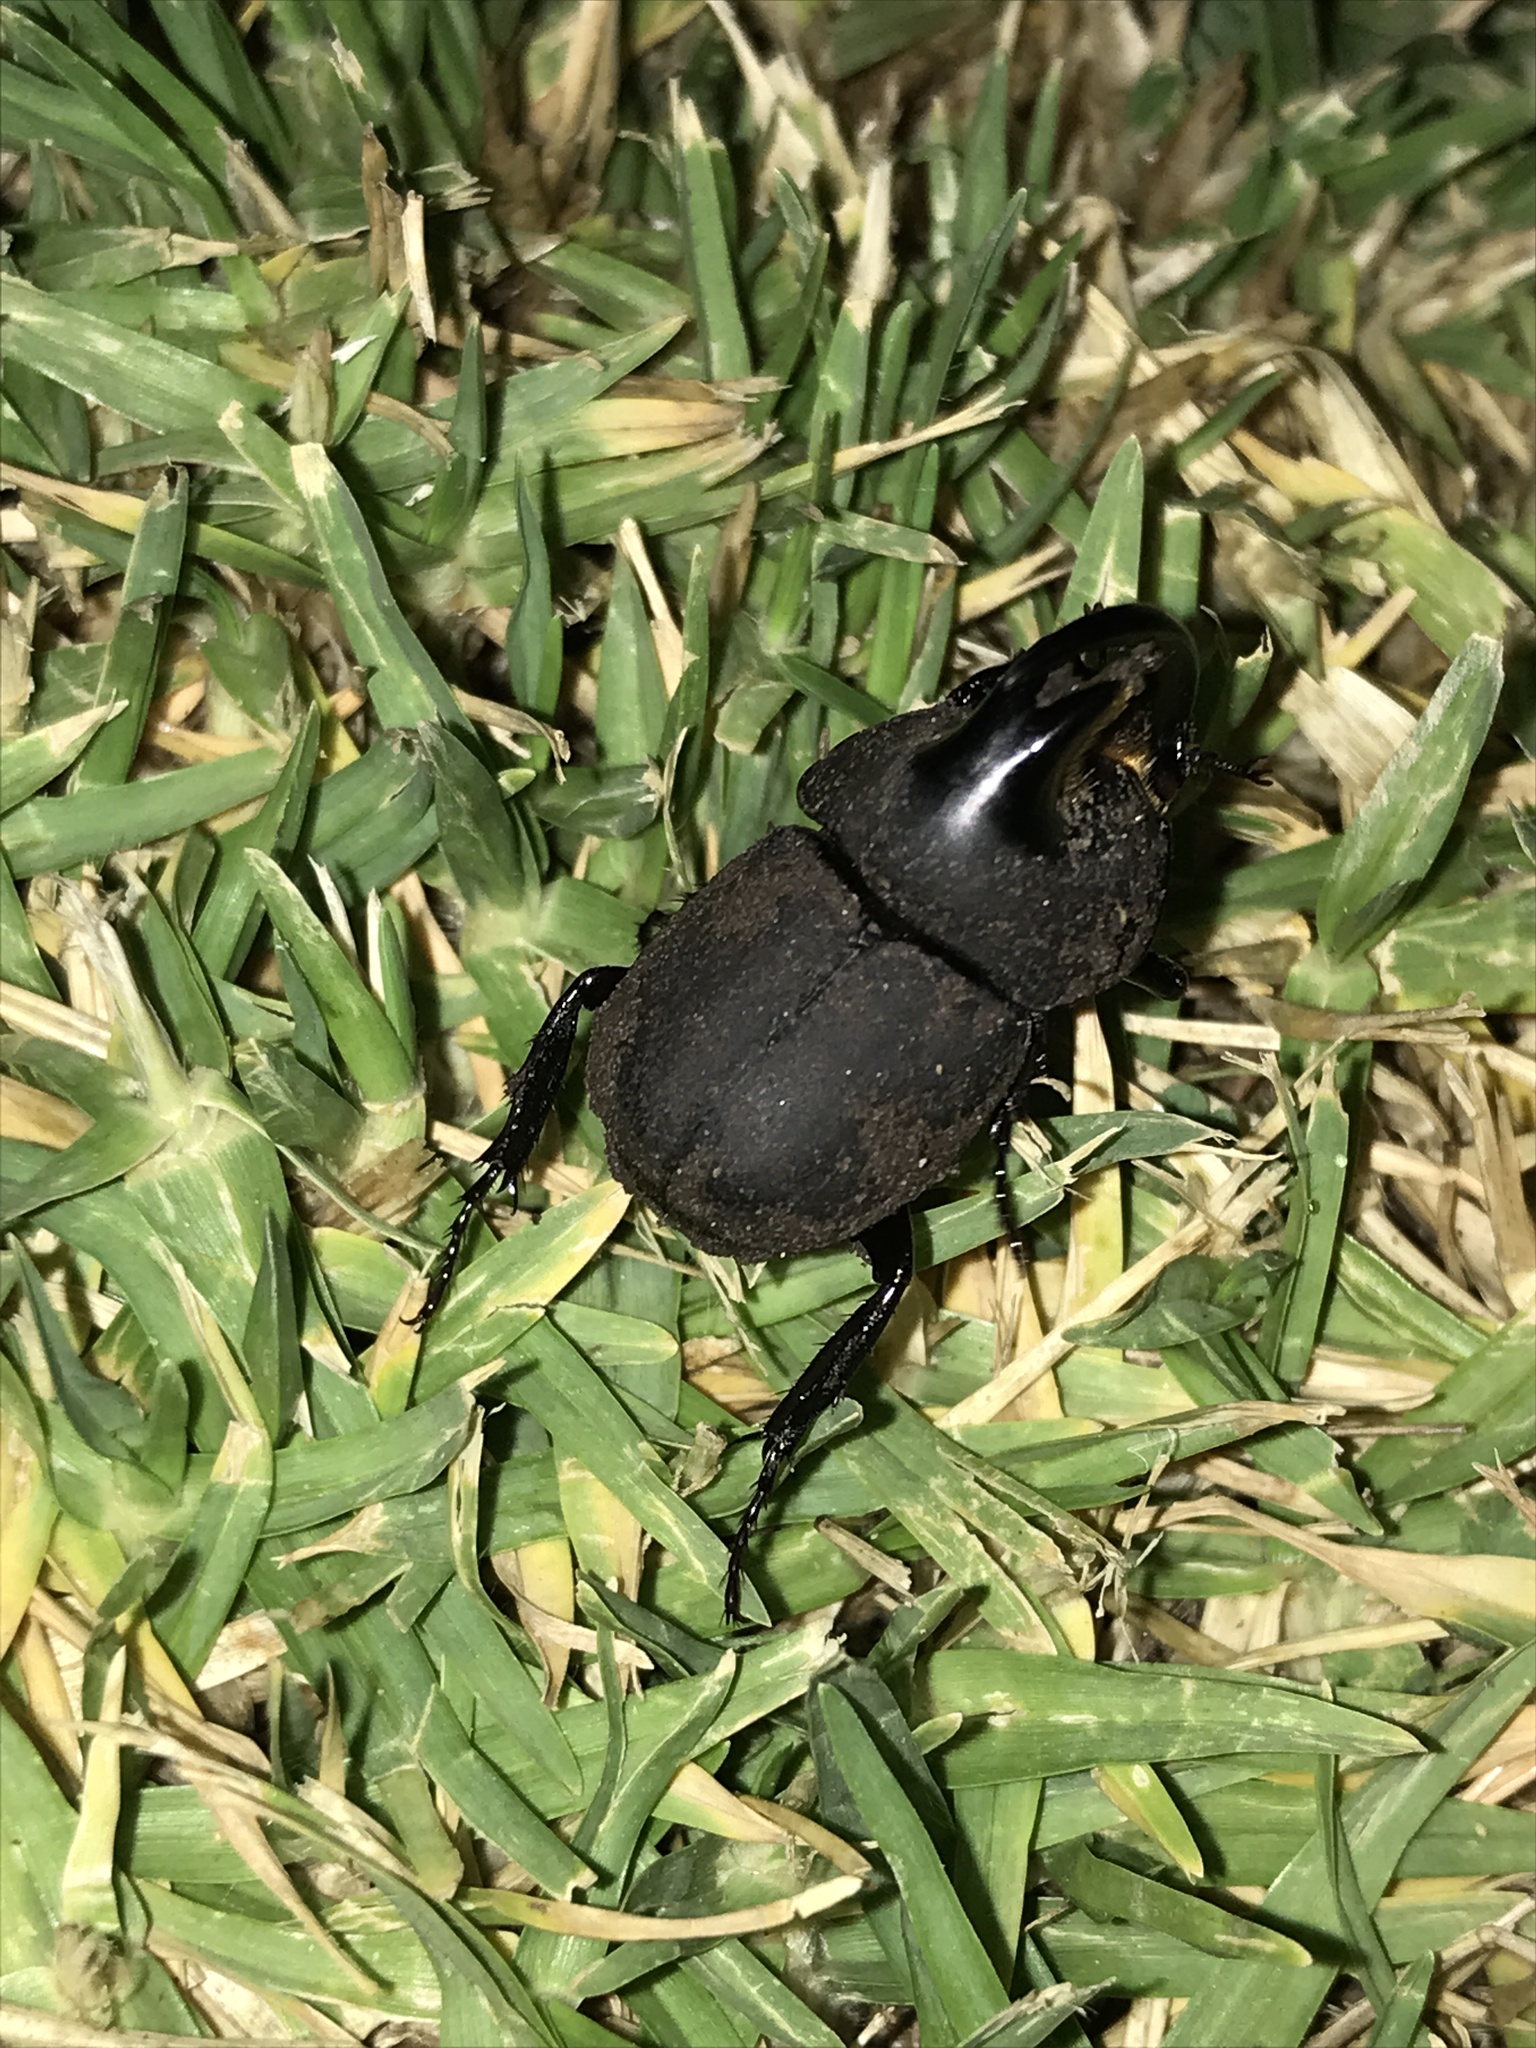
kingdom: Animalia
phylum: Arthropoda
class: Insecta
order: Coleoptera
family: Scarabaeidae
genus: Diloboderus
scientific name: Diloboderus abderus
